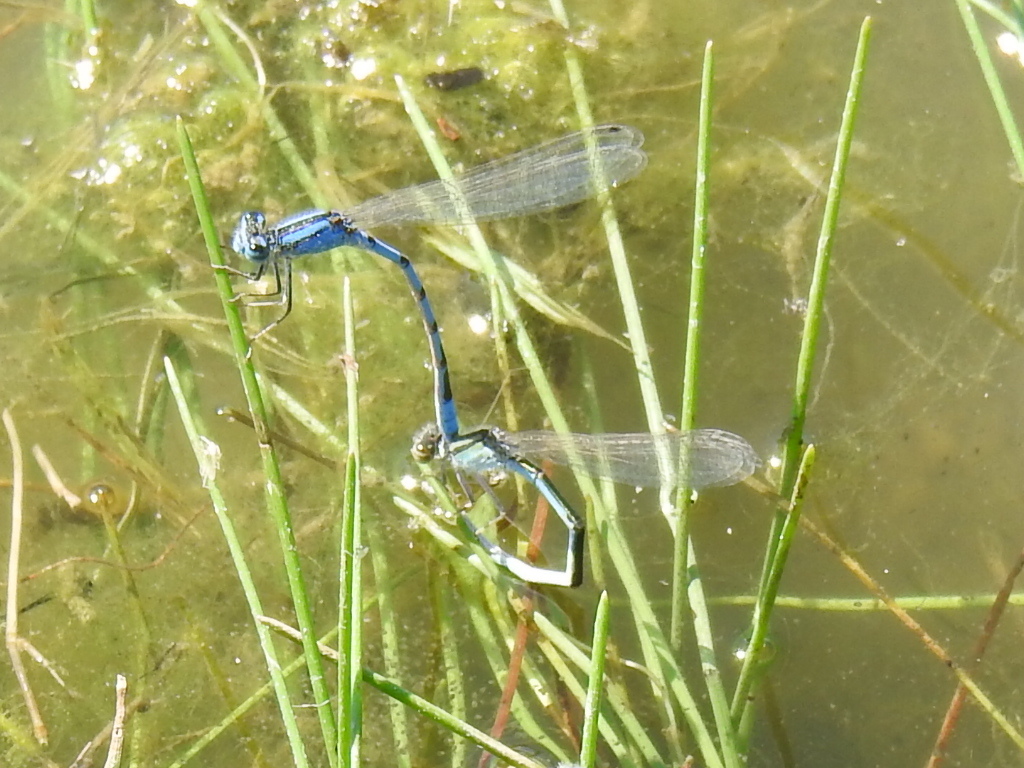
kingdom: Animalia
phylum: Arthropoda
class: Insecta
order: Odonata
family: Coenagrionidae
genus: Enallagma
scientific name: Enallagma civile
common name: Damselfly
